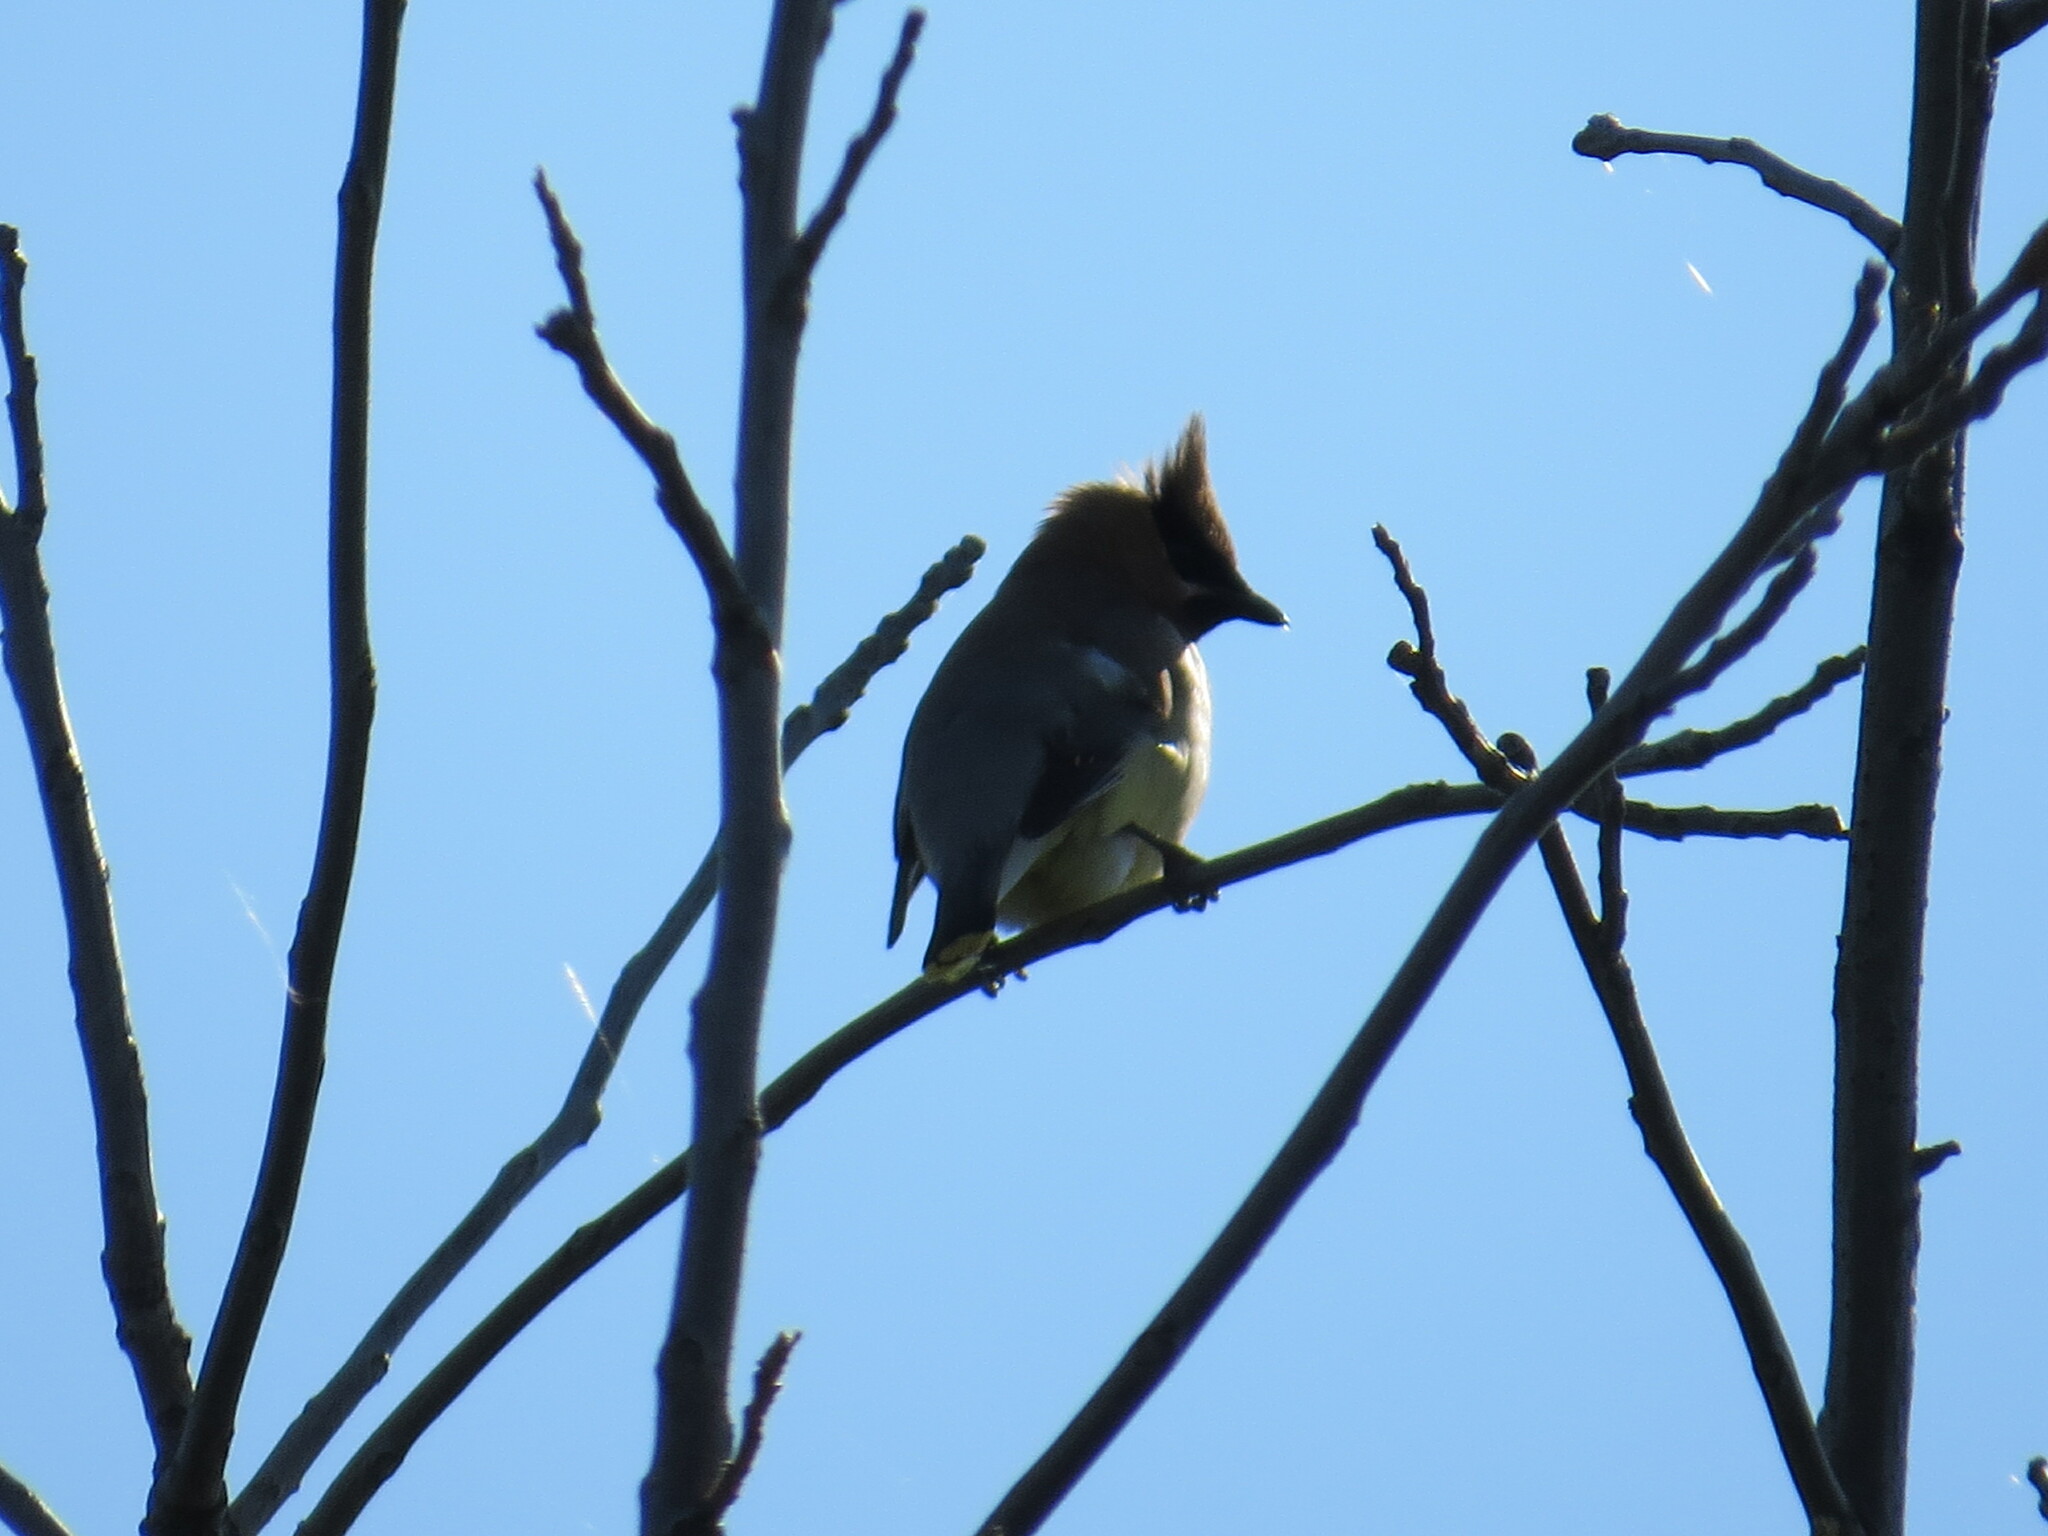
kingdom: Animalia
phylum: Chordata
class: Aves
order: Passeriformes
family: Bombycillidae
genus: Bombycilla
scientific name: Bombycilla cedrorum
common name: Cedar waxwing
